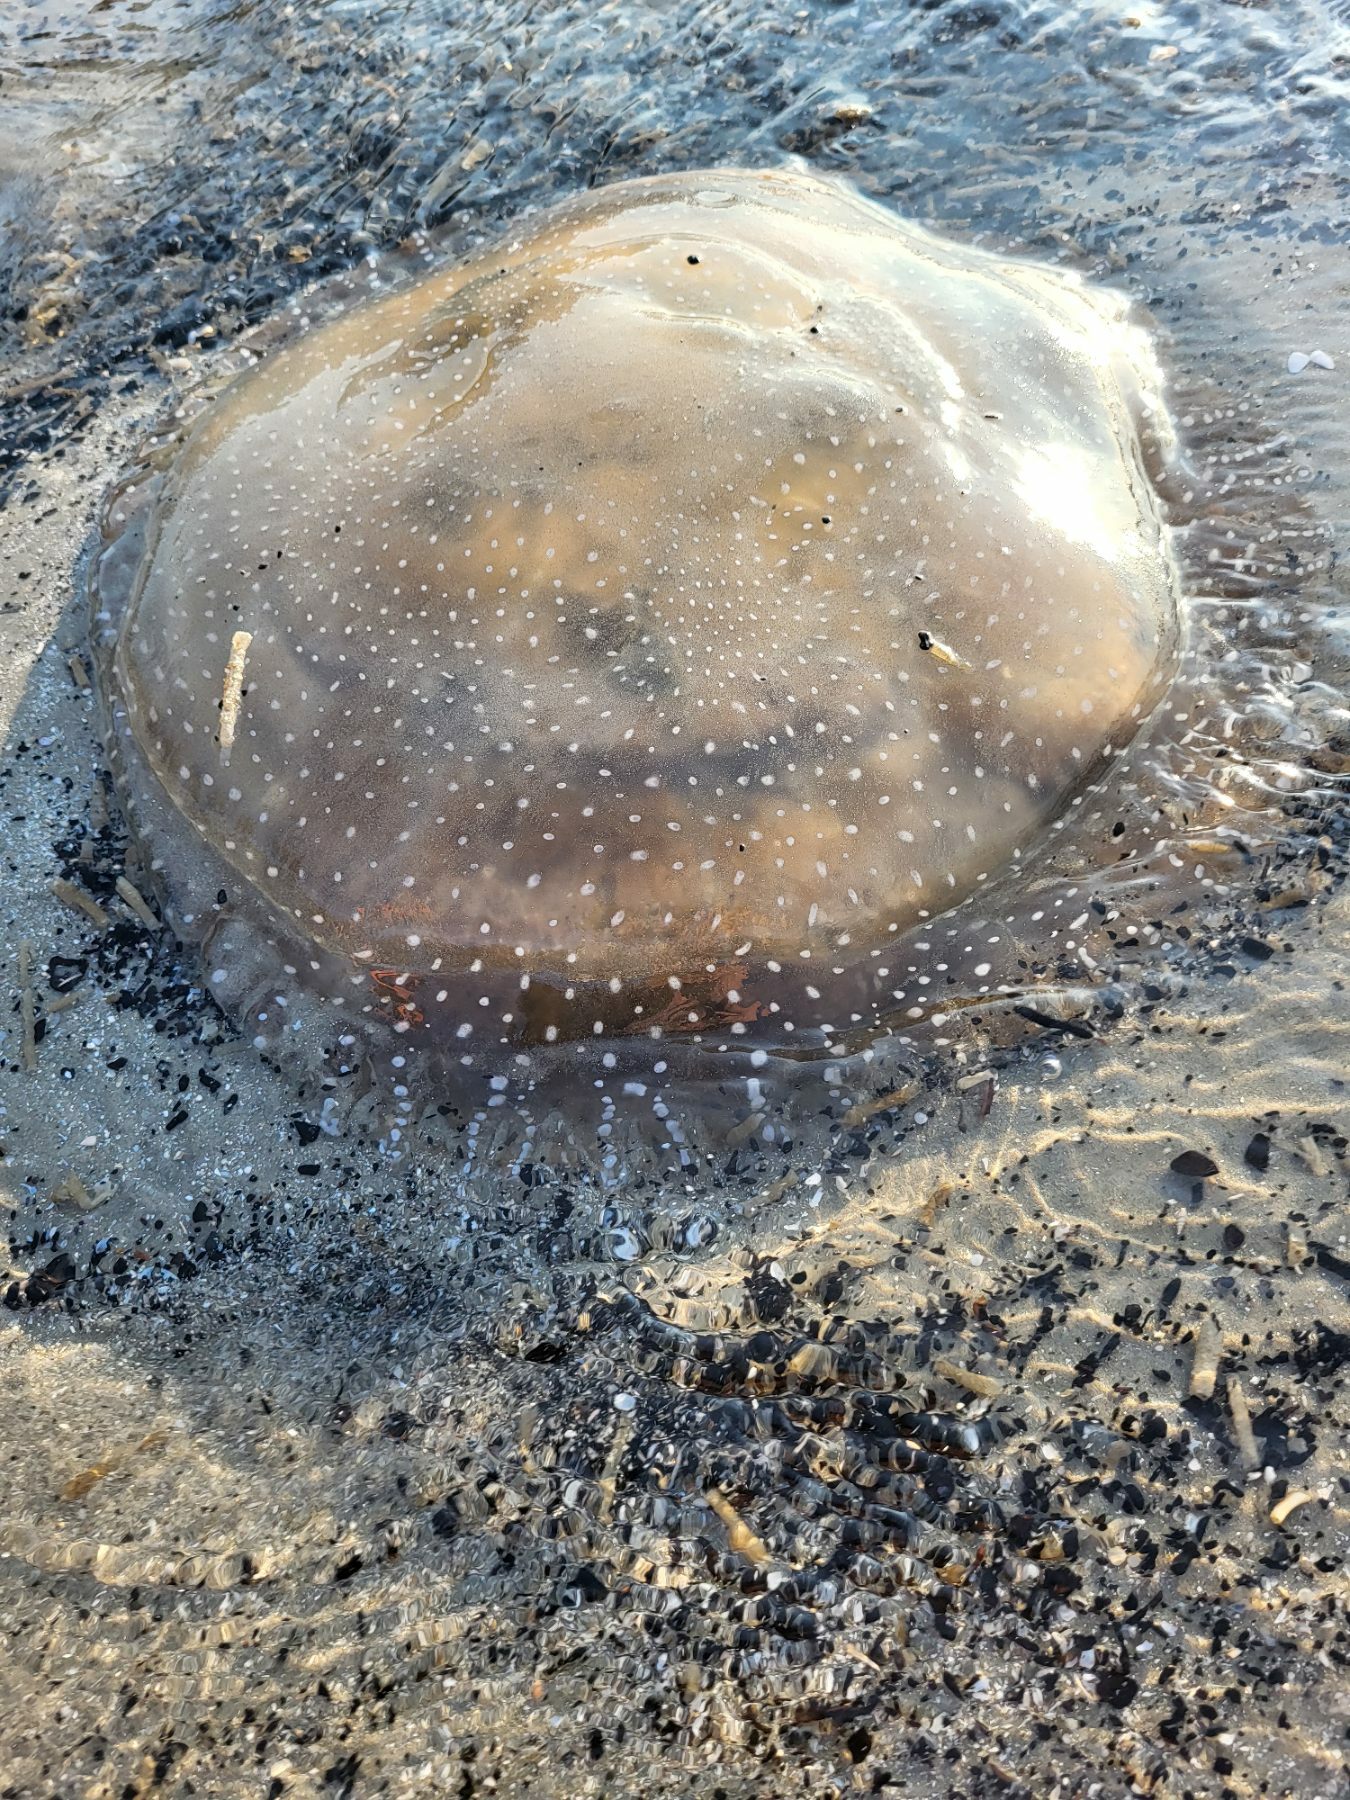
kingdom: Animalia
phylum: Cnidaria
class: Scyphozoa
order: Rhizostomeae
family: Mastigiidae
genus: Phyllorhiza
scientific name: Phyllorhiza punctata
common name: Australian spotted jellyfish
